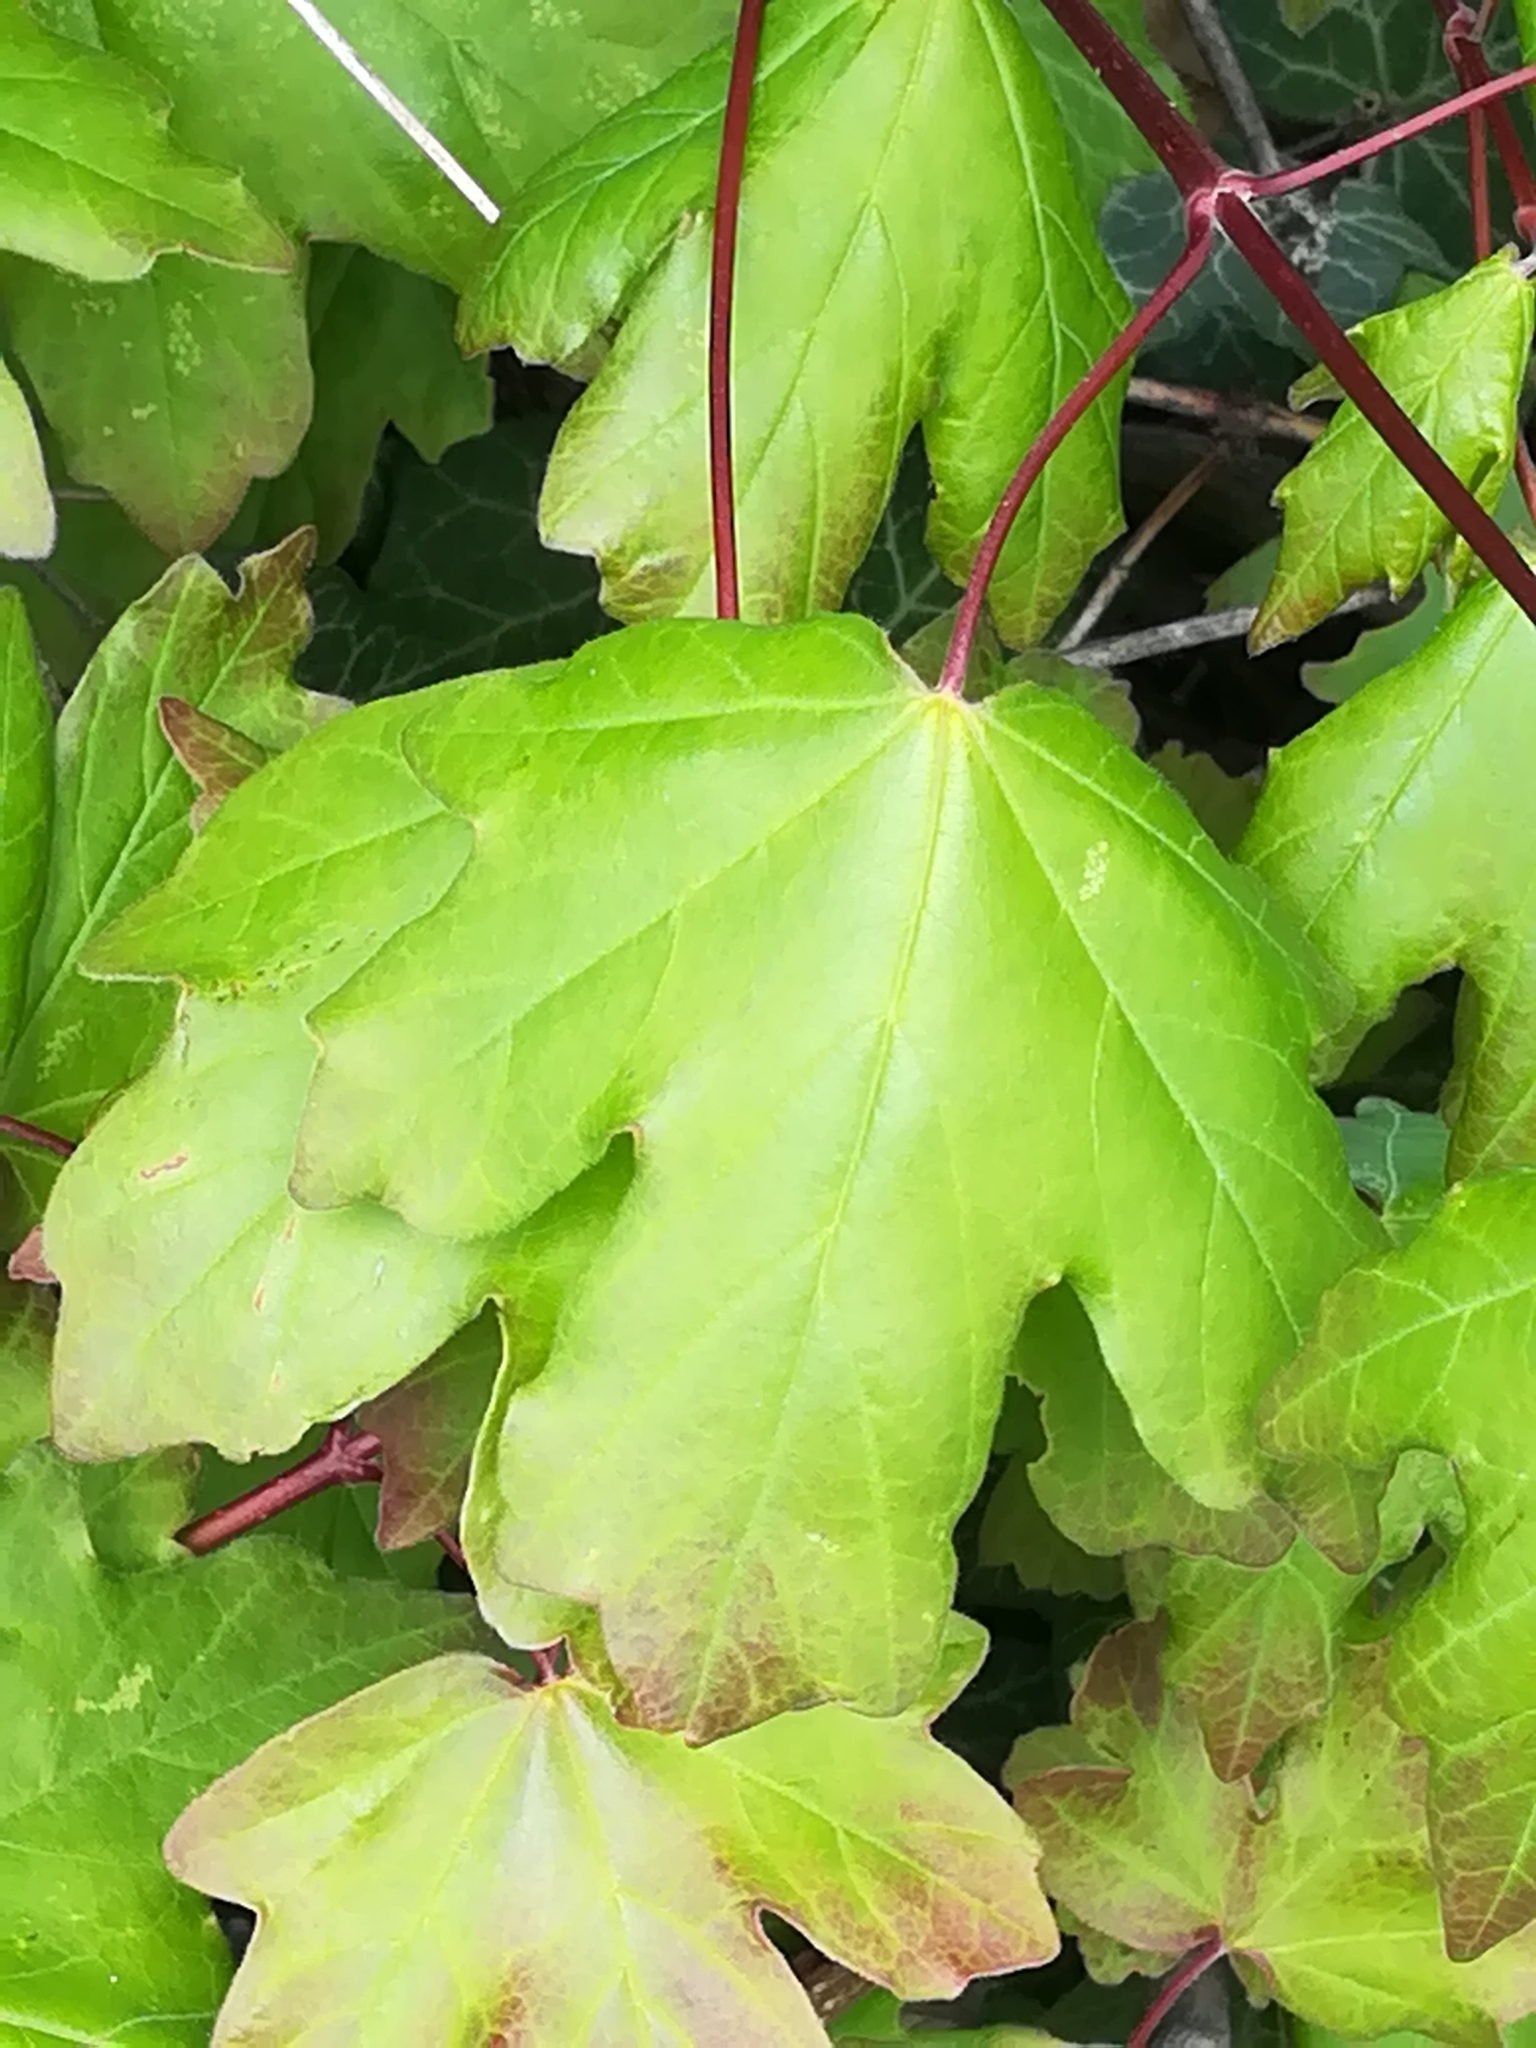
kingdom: Plantae
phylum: Tracheophyta
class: Magnoliopsida
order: Sapindales
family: Sapindaceae
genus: Acer
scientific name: Acer campestre
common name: Field maple
